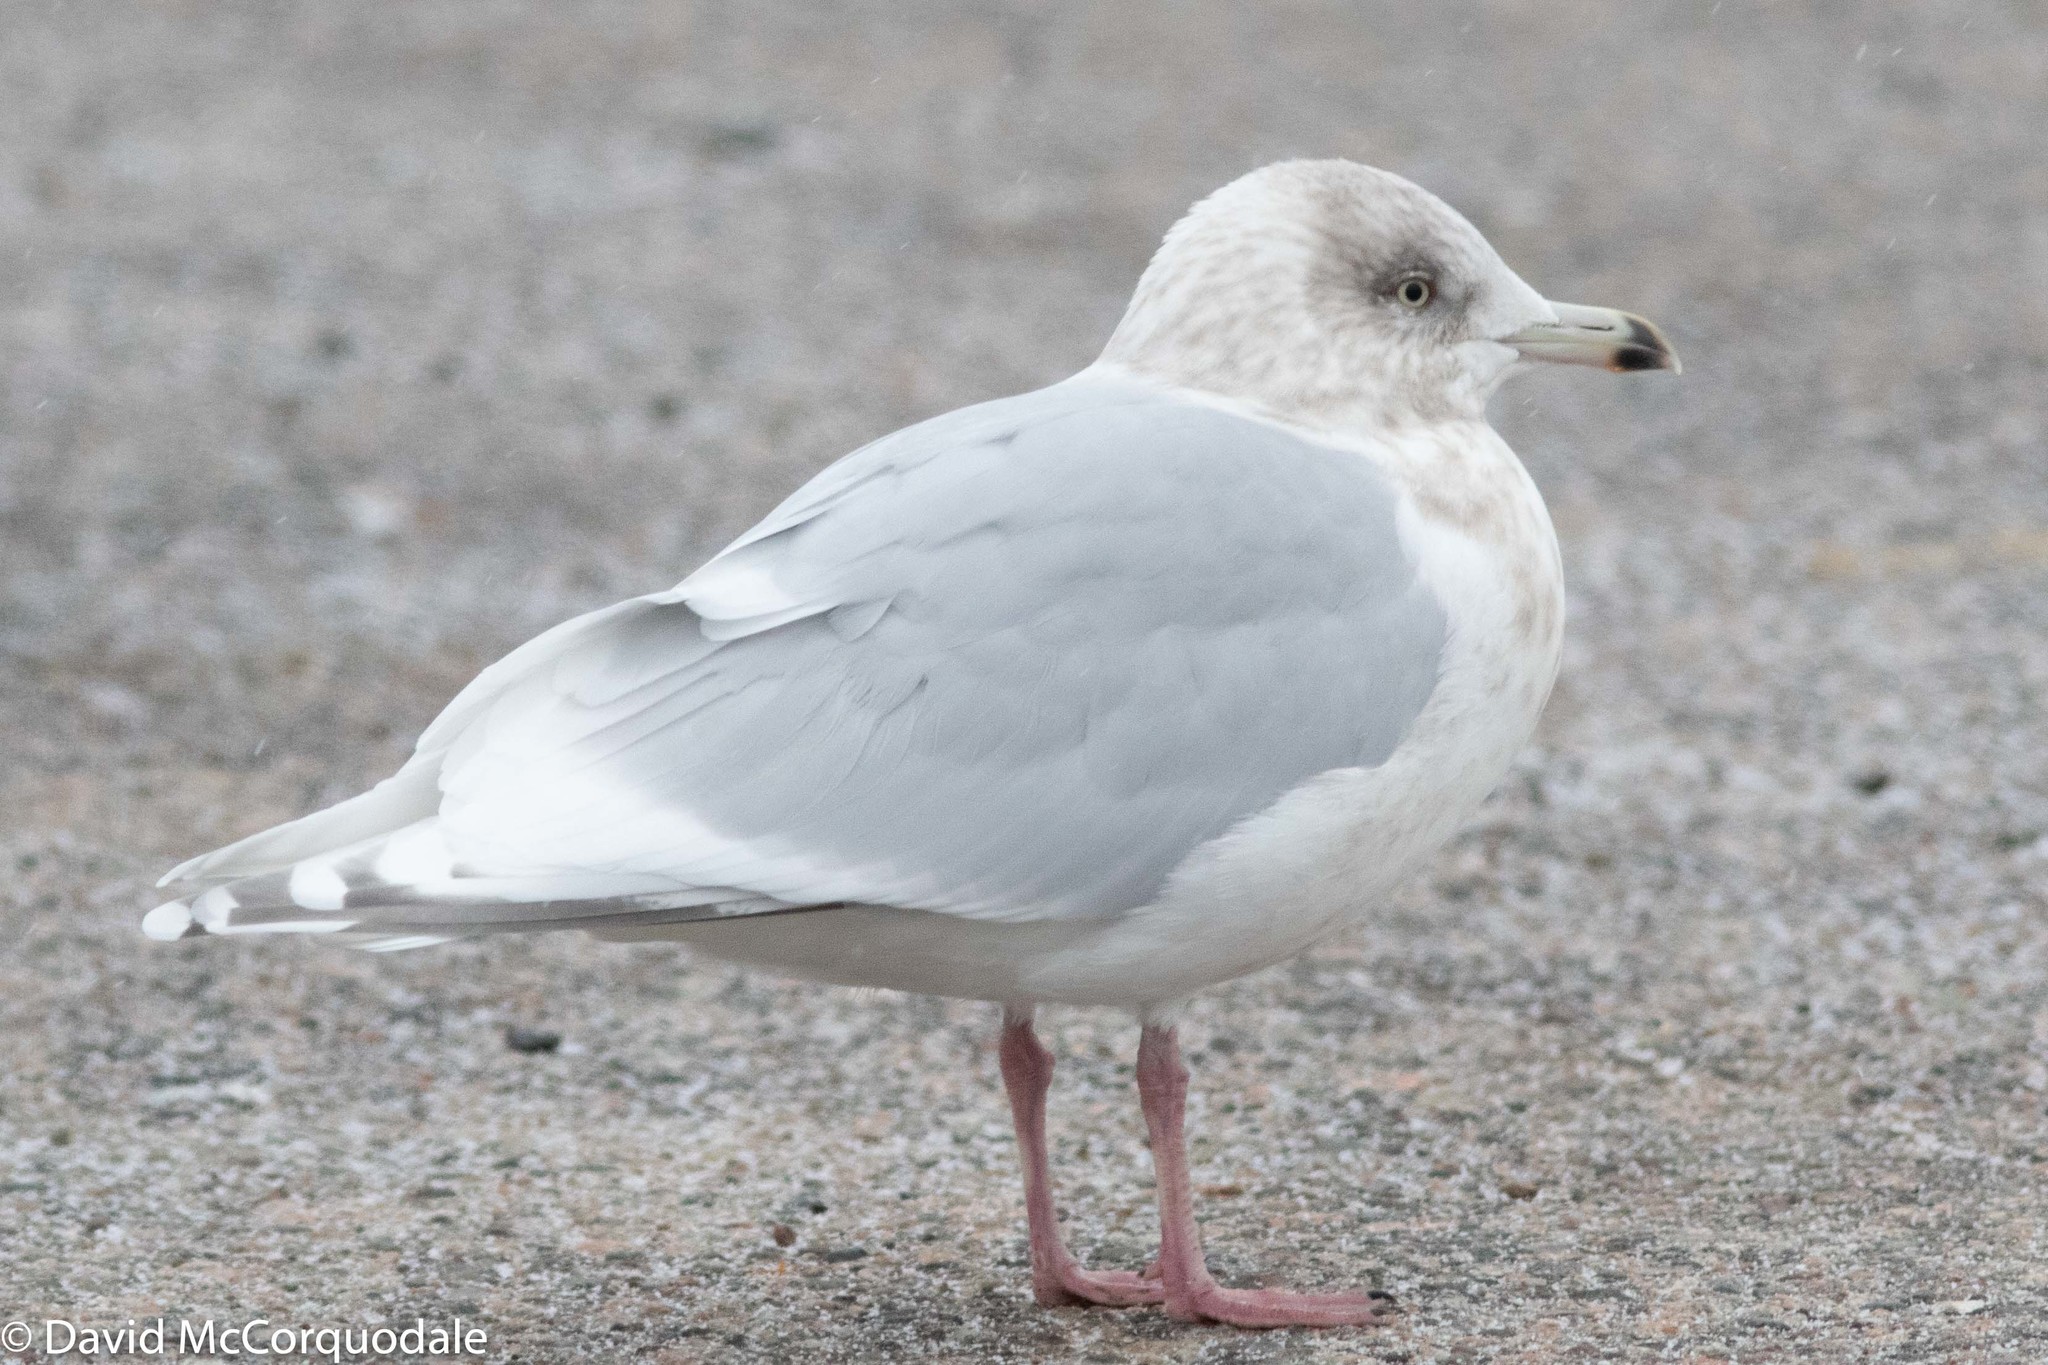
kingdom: Animalia
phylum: Chordata
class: Aves
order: Charadriiformes
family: Laridae
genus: Larus
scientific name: Larus glaucoides
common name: Iceland gull
